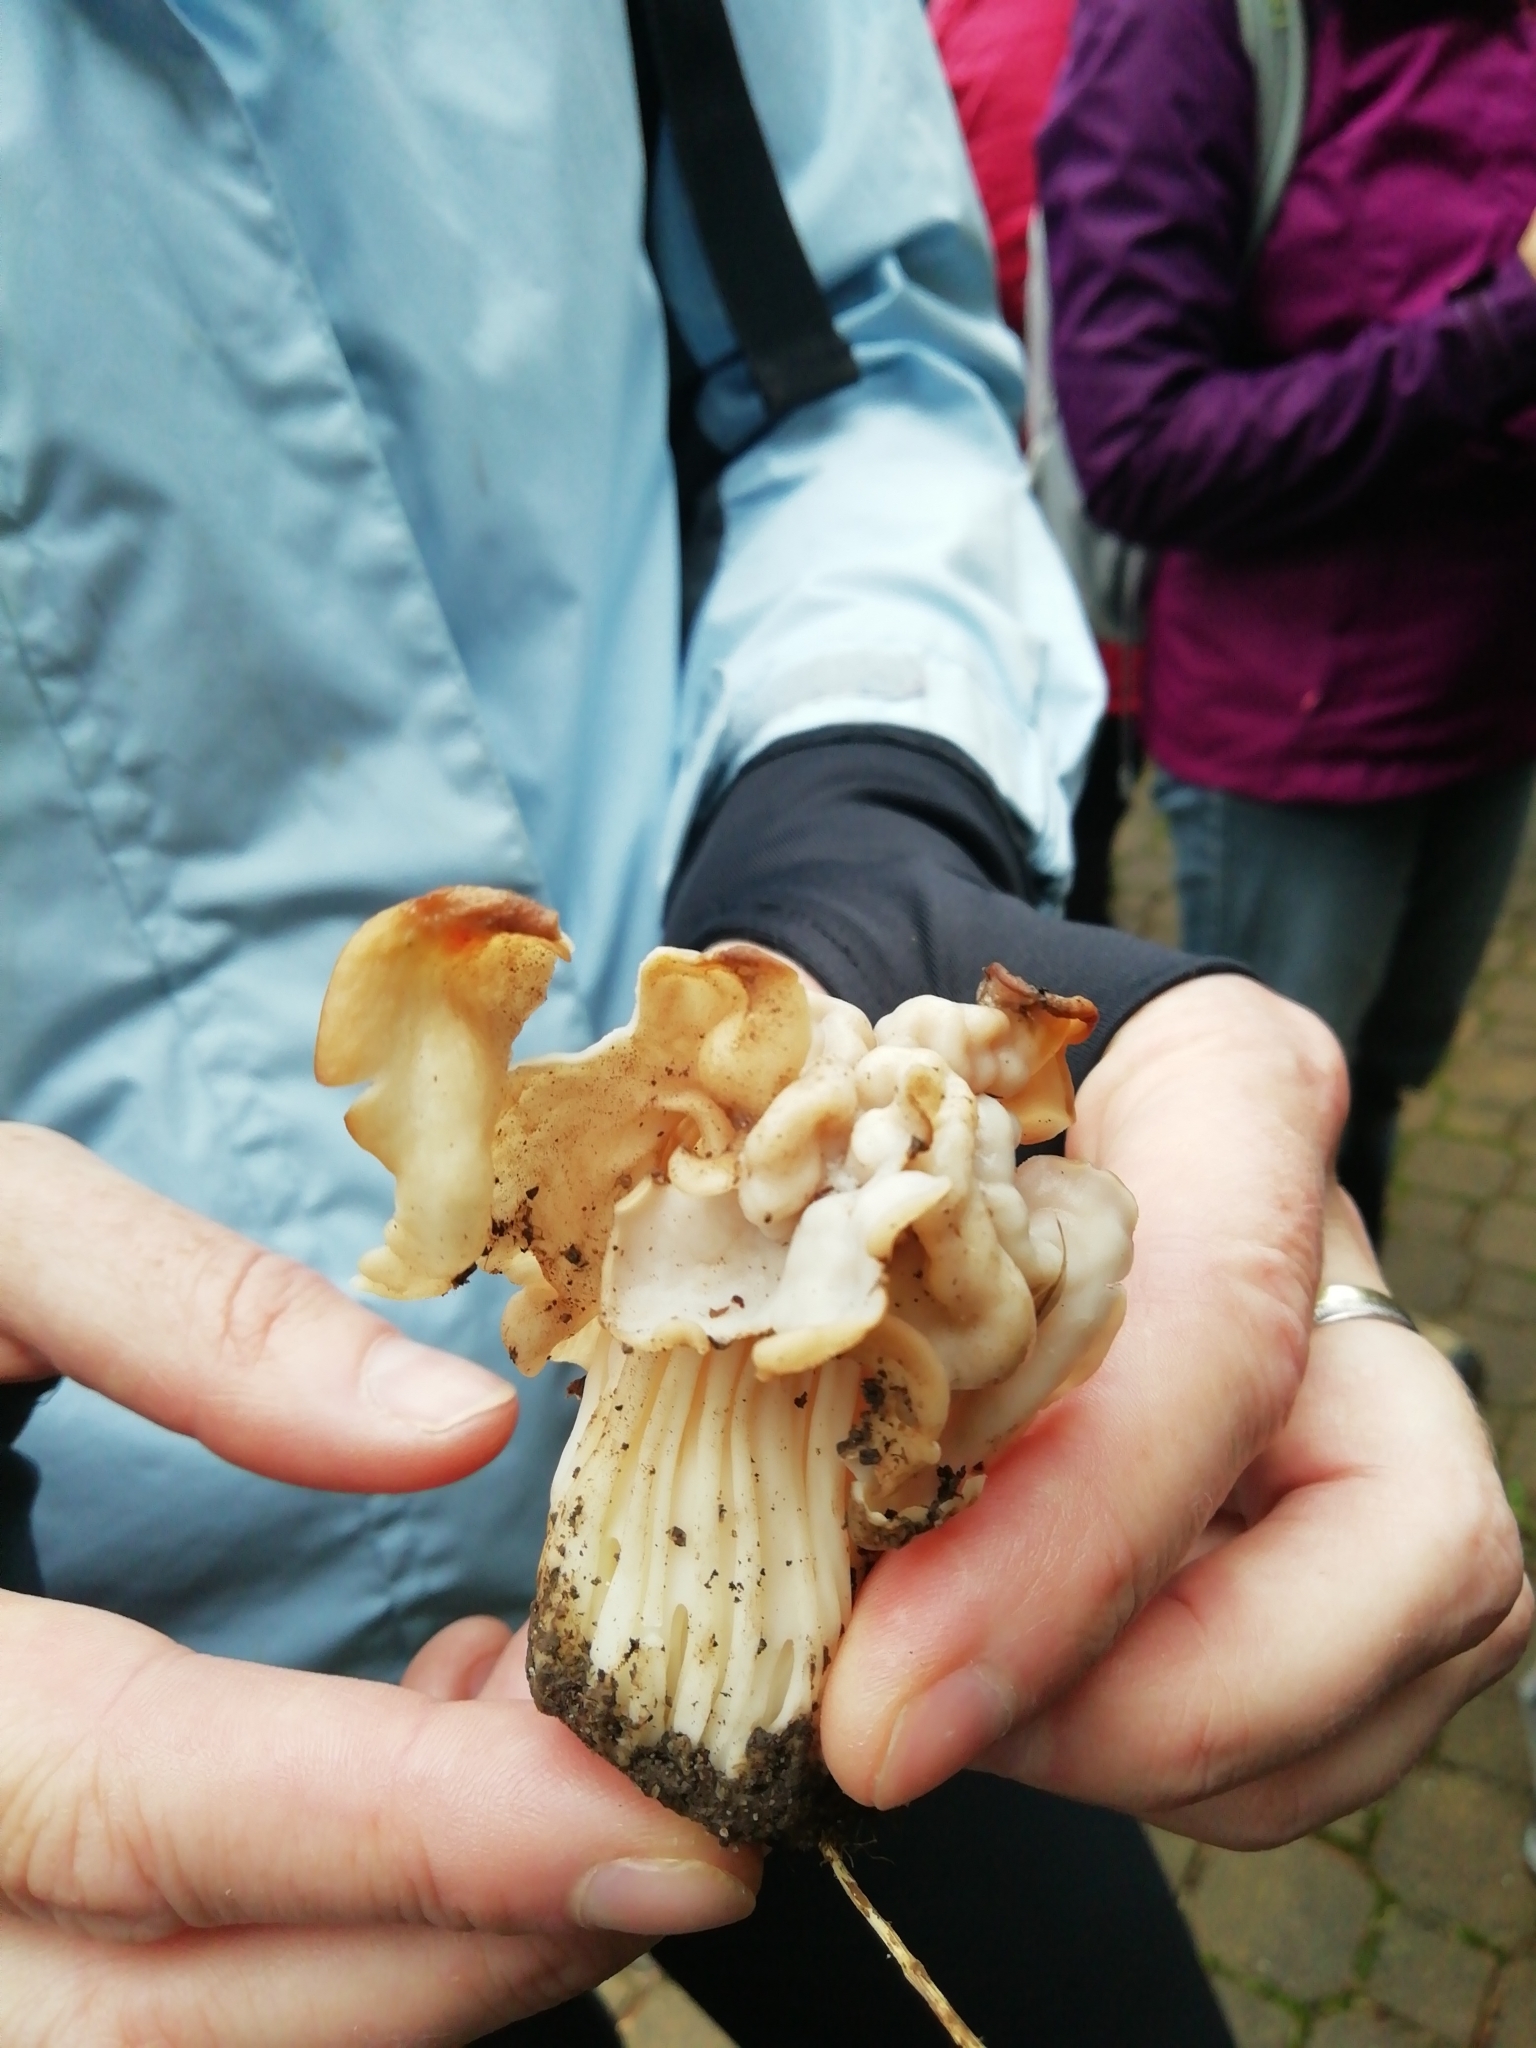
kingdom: Fungi
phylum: Ascomycota
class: Pezizomycetes
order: Pezizales
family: Helvellaceae
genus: Helvella
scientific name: Helvella crispa
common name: White saddle
